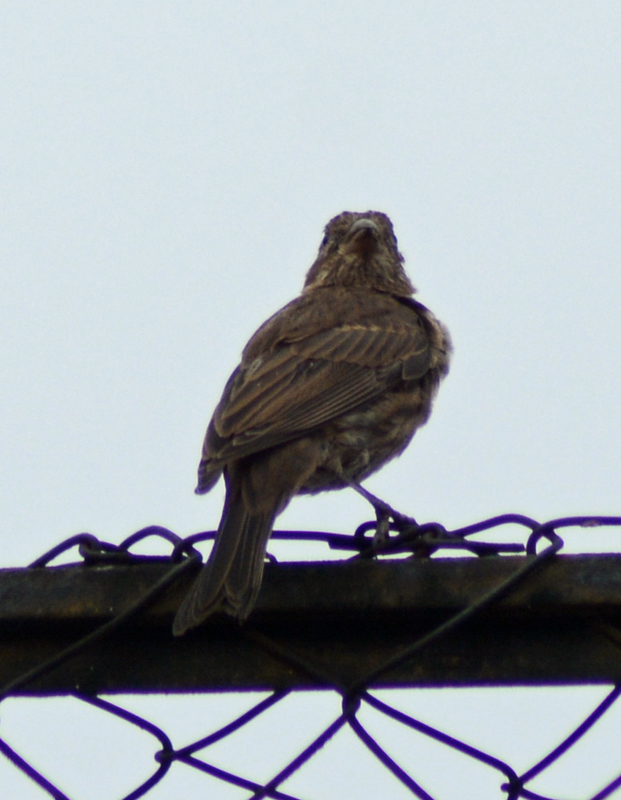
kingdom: Animalia
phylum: Chordata
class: Aves
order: Passeriformes
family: Fringillidae
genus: Haemorhous
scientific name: Haemorhous mexicanus
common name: House finch
